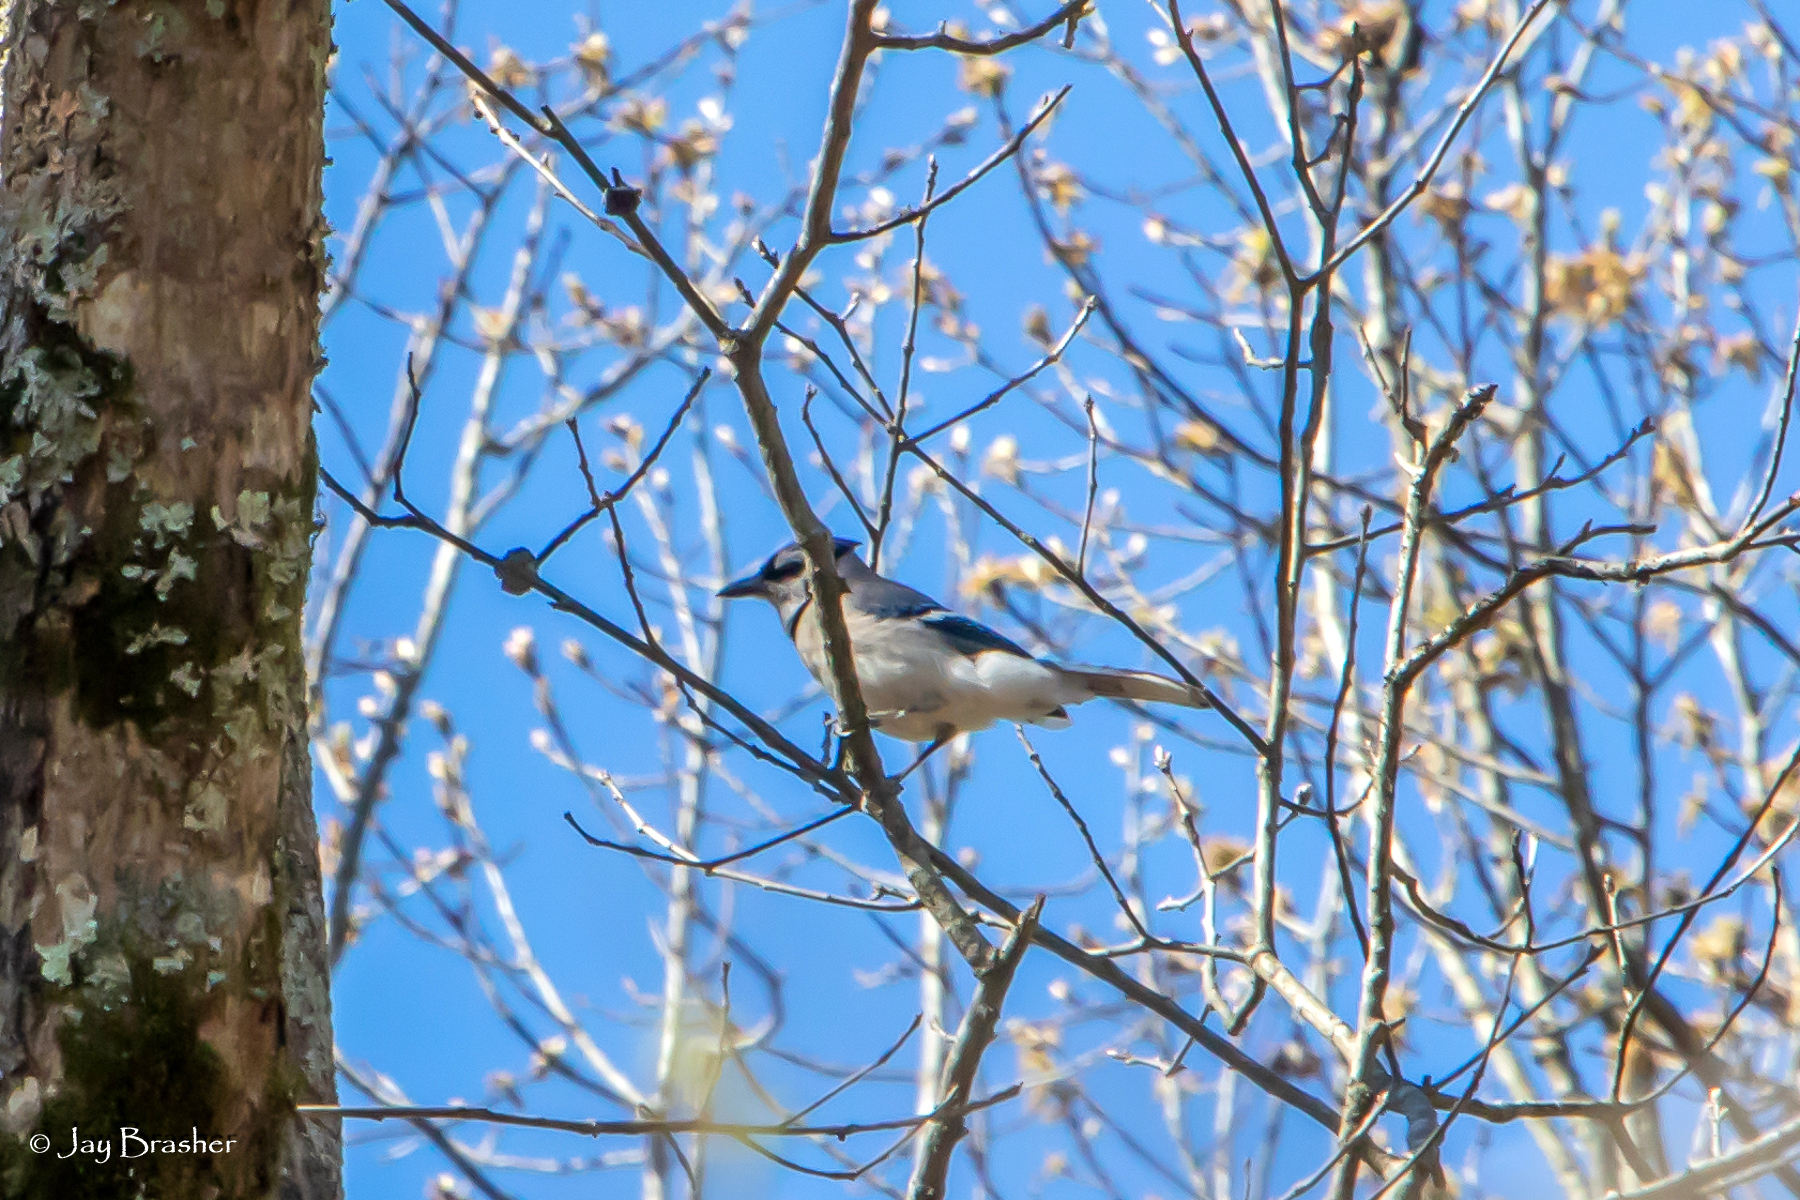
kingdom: Animalia
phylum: Chordata
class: Aves
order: Passeriformes
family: Corvidae
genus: Cyanocitta
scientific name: Cyanocitta cristata
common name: Blue jay
